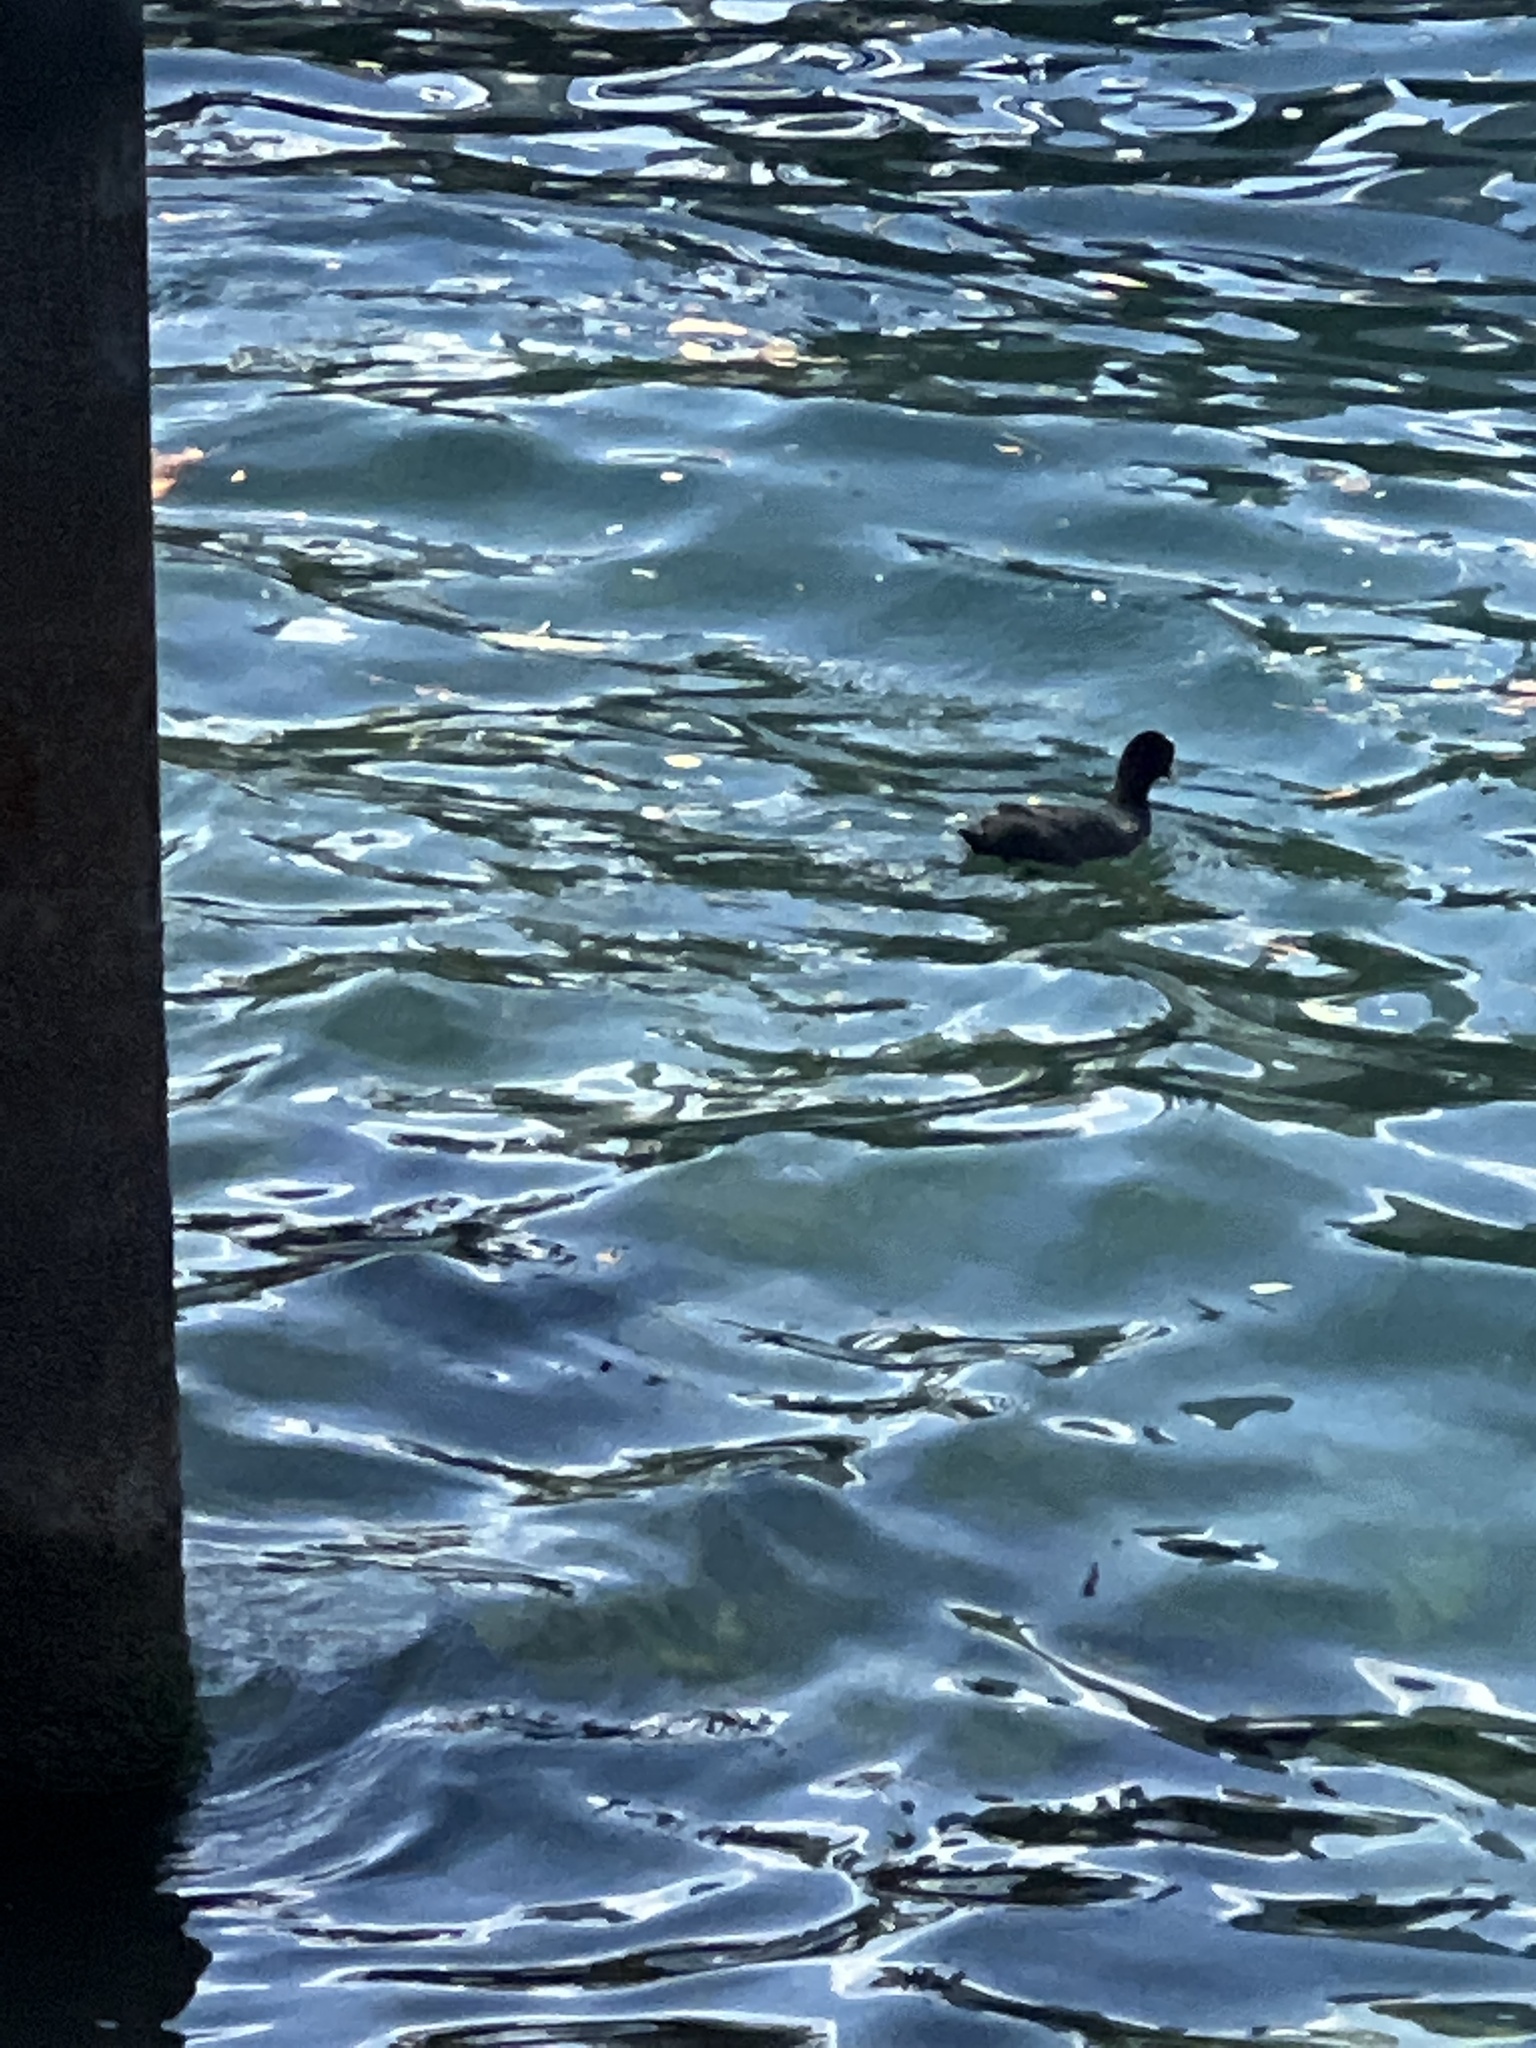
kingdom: Animalia
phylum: Chordata
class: Aves
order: Gruiformes
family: Rallidae
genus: Fulica
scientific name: Fulica atra
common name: Eurasian coot
